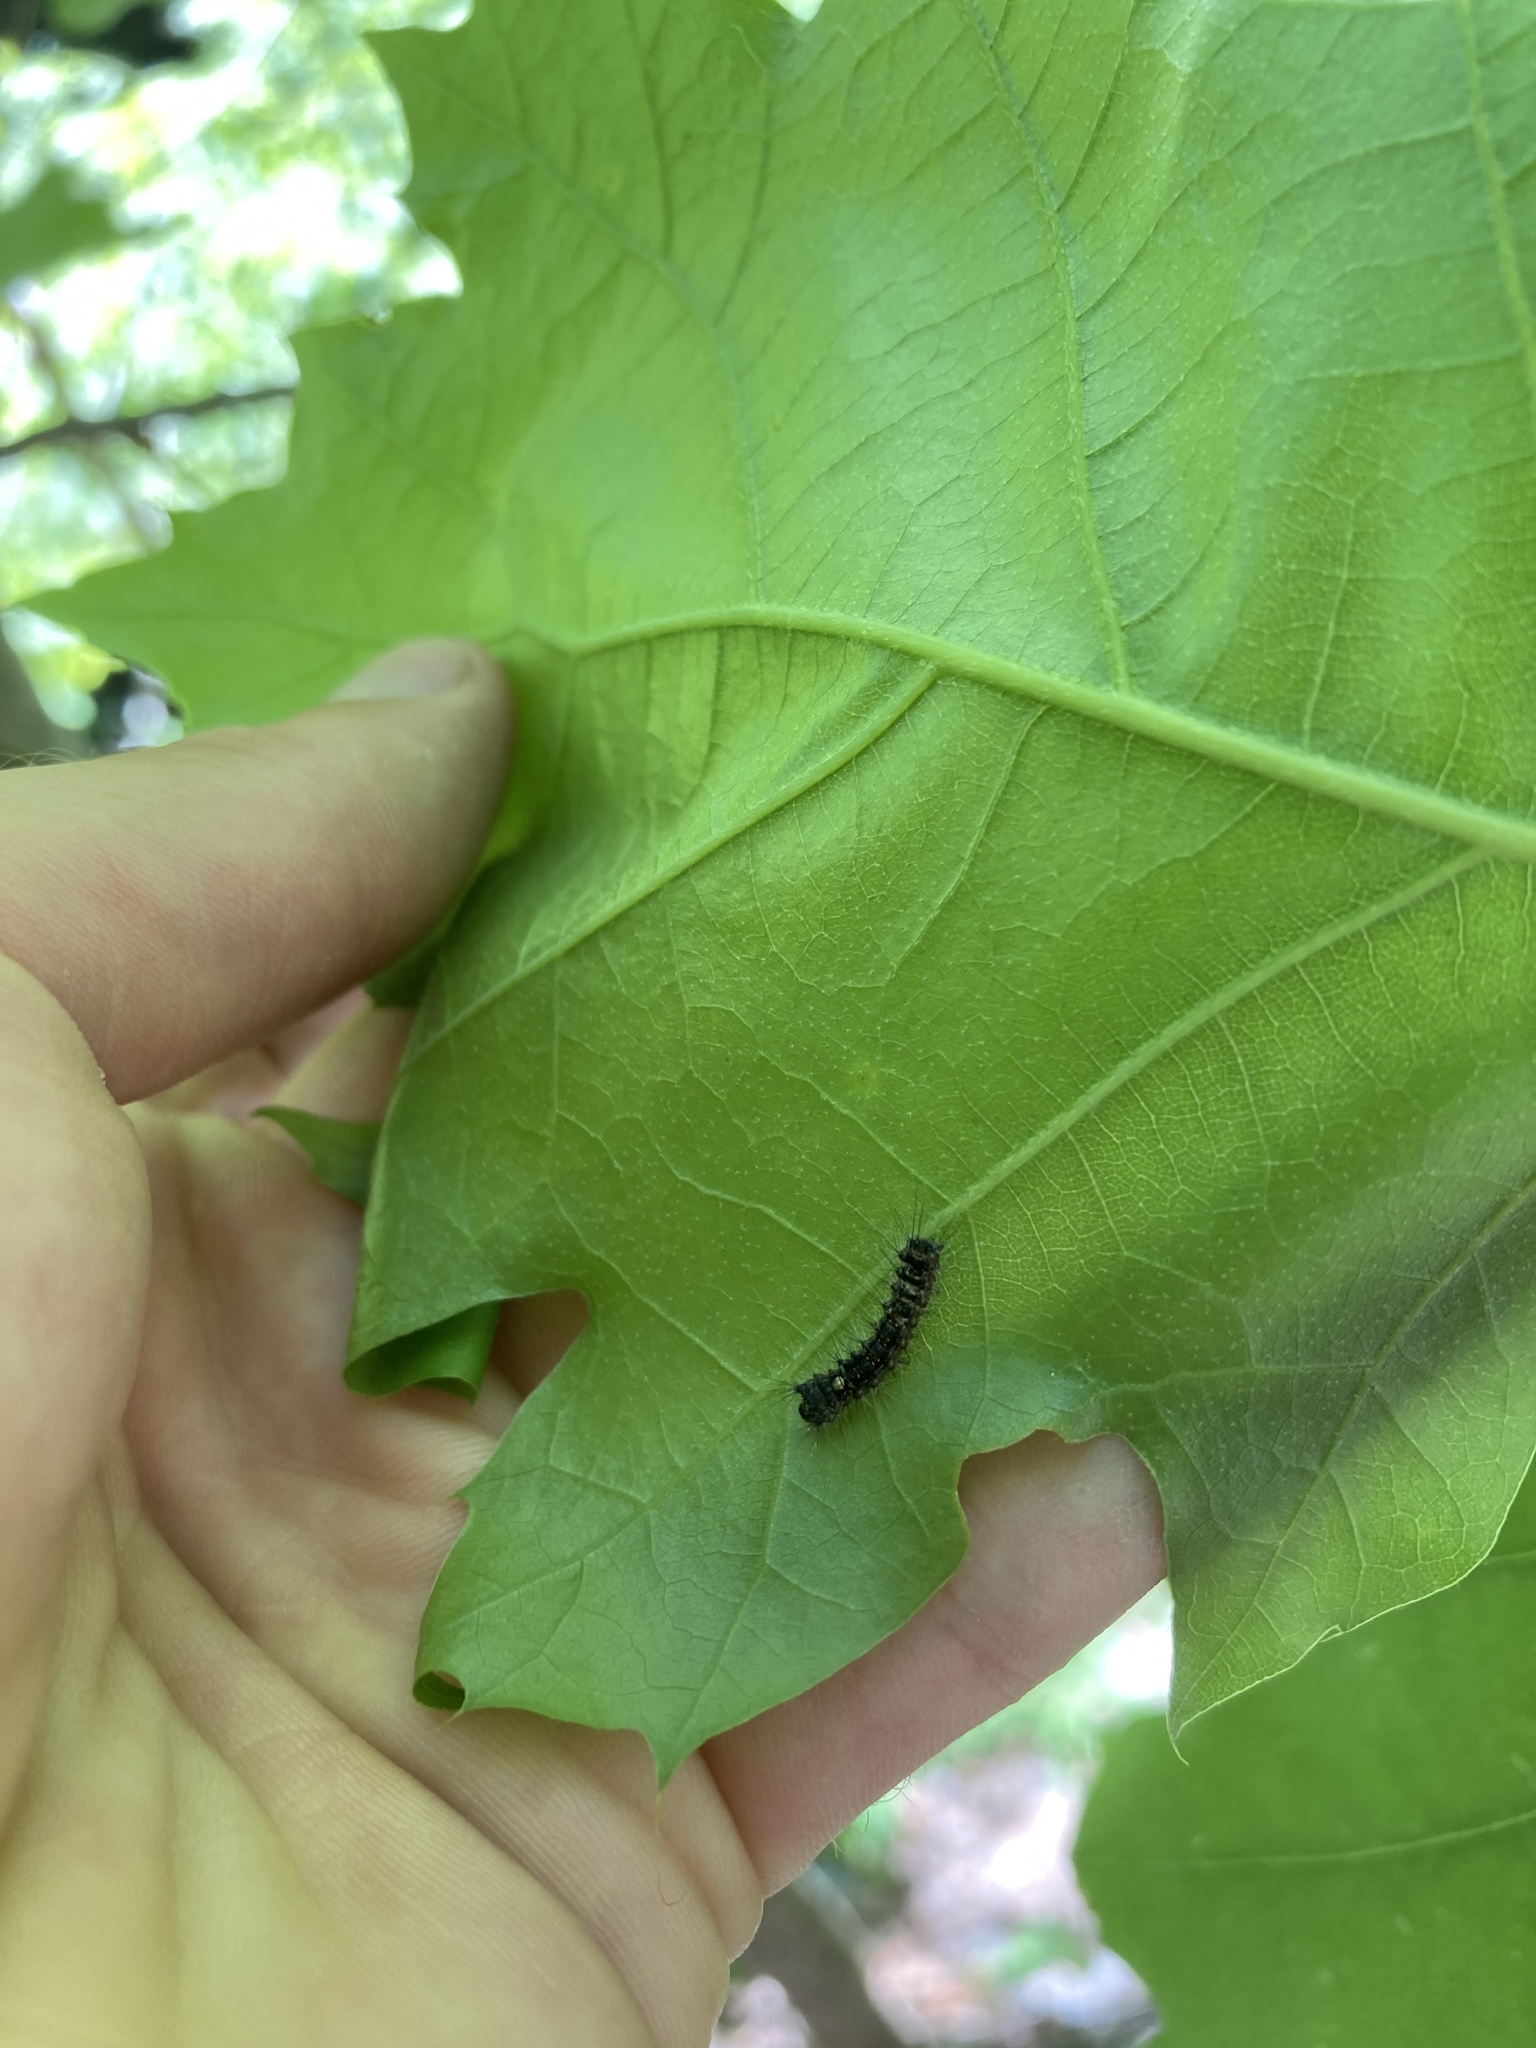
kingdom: Animalia
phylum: Arthropoda
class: Insecta
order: Lepidoptera
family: Erebidae
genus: Lymantria
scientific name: Lymantria dispar
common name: Gypsy moth
